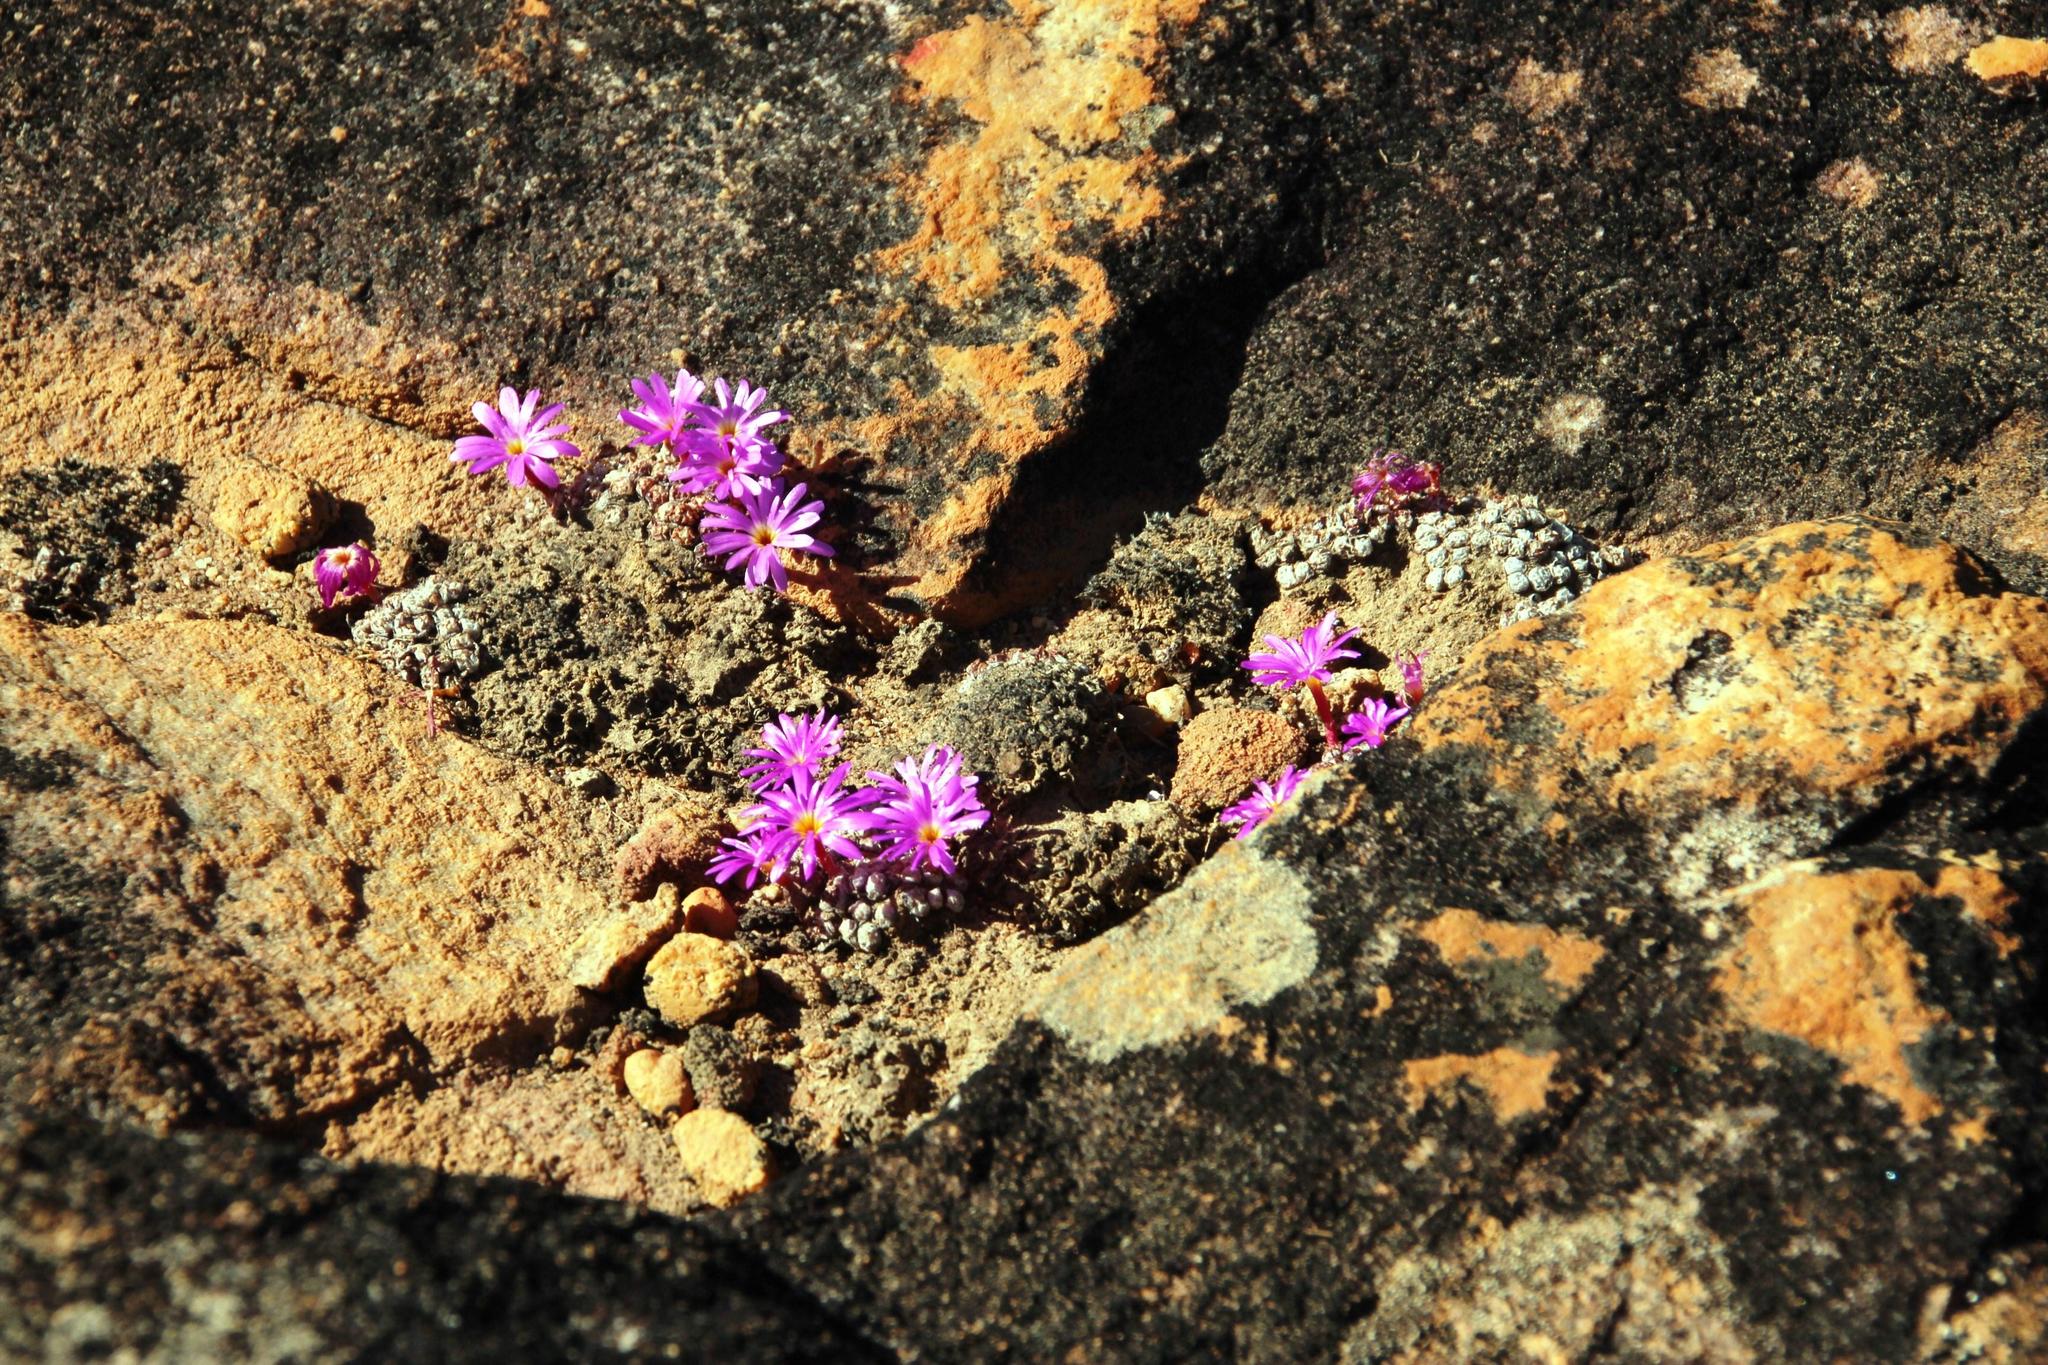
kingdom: Plantae
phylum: Tracheophyta
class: Magnoliopsida
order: Caryophyllales
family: Aizoaceae
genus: Conophytum
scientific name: Conophytum minusculum
